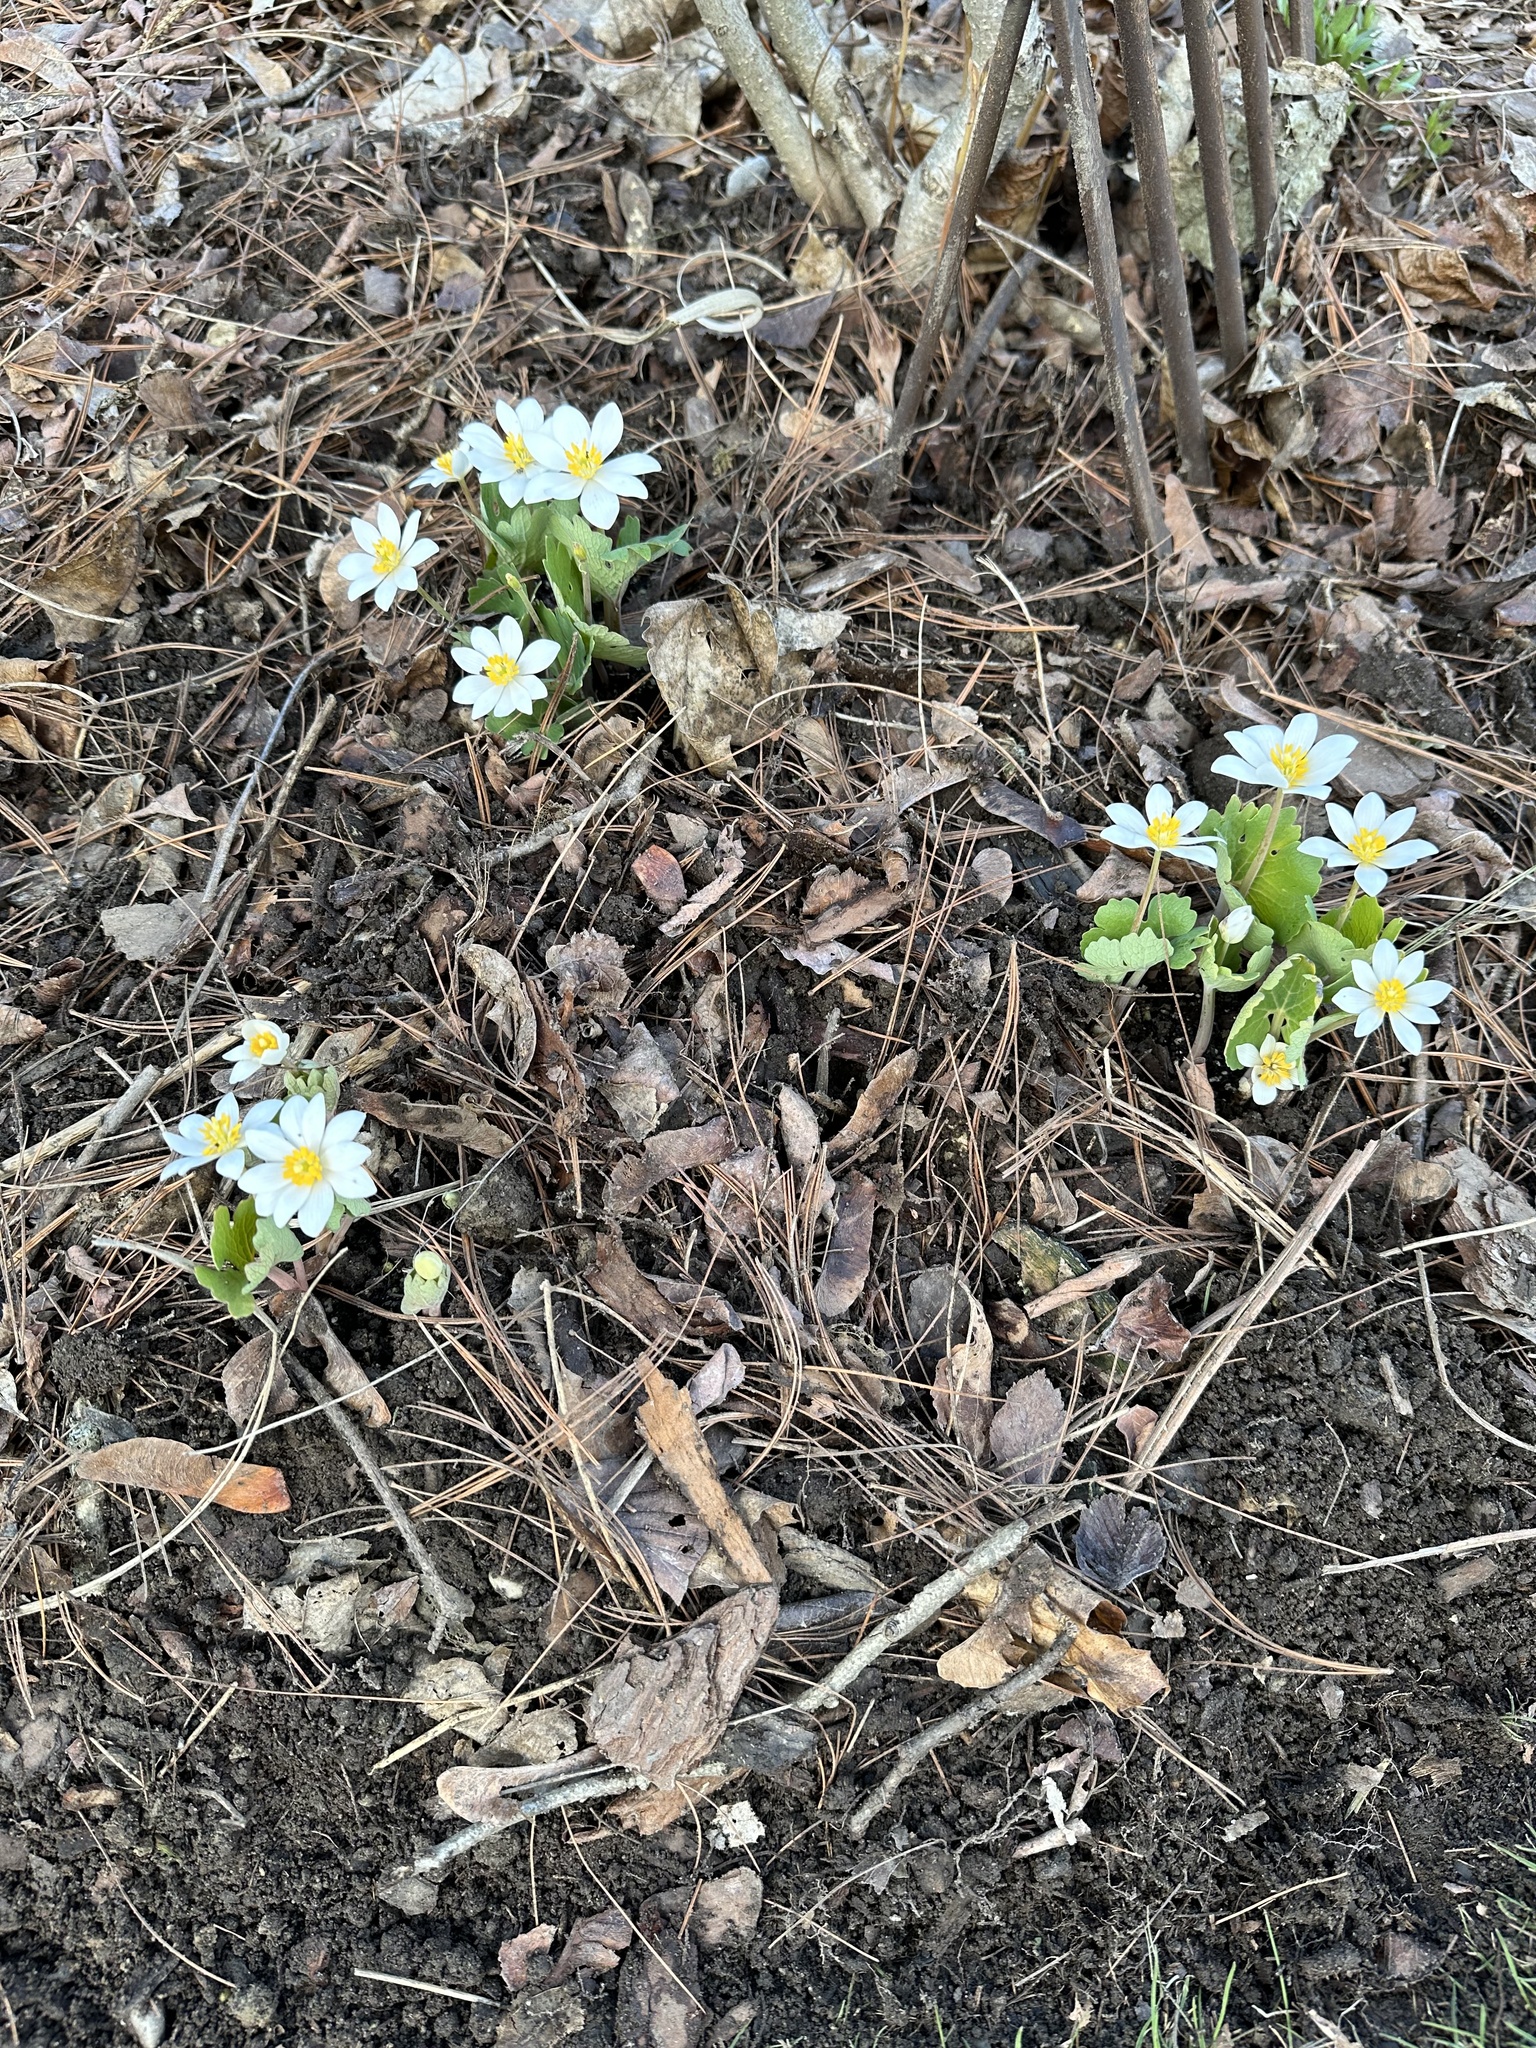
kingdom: Plantae
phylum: Tracheophyta
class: Magnoliopsida
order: Ranunculales
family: Papaveraceae
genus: Sanguinaria
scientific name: Sanguinaria canadensis
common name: Bloodroot
